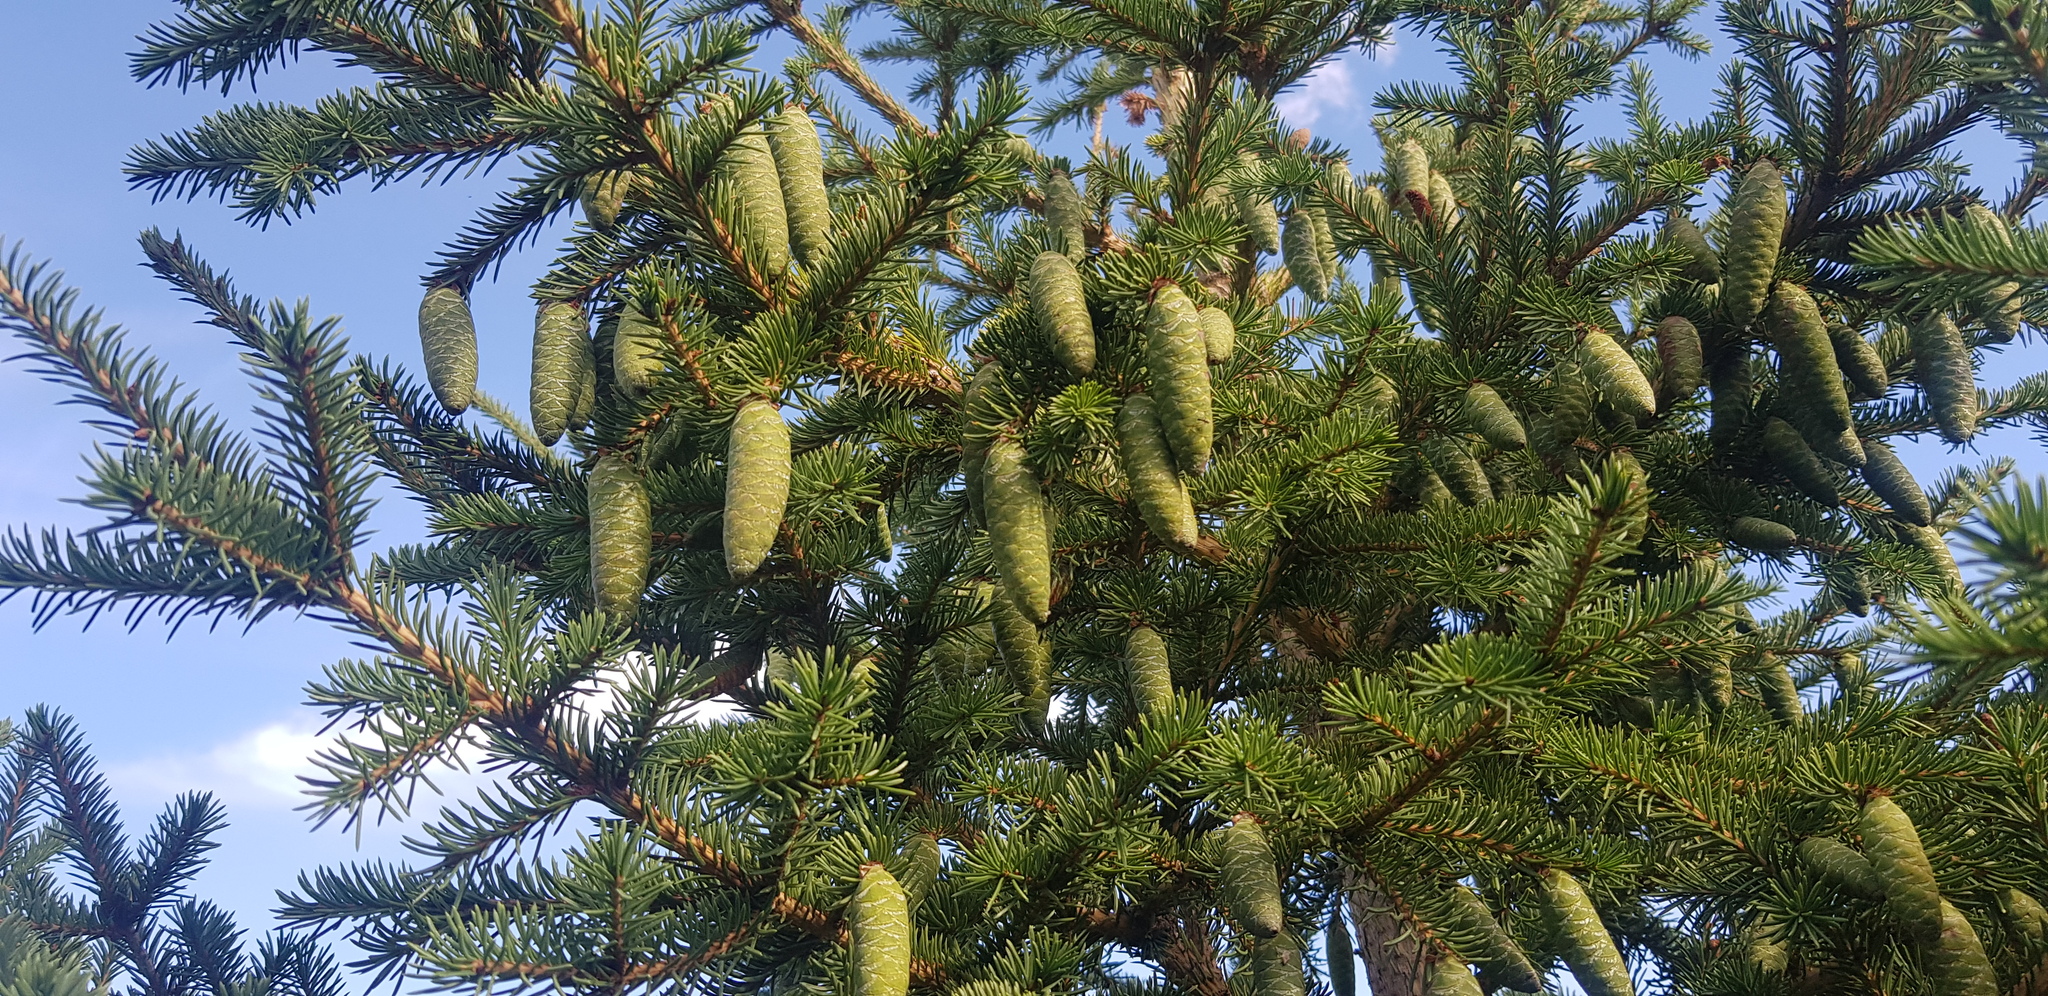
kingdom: Plantae
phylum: Tracheophyta
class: Pinopsida
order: Pinales
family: Pinaceae
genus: Picea
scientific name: Picea obovata
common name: Siberian spruce
